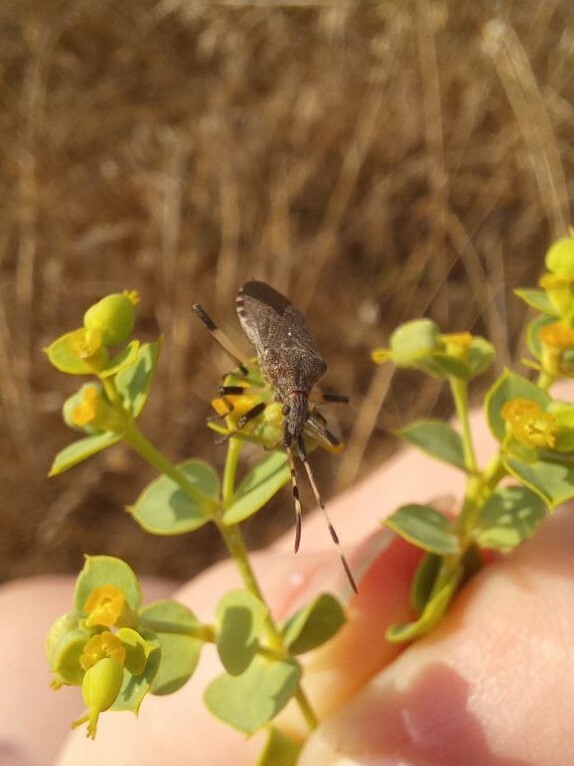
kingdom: Animalia
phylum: Arthropoda
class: Insecta
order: Hemiptera
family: Stenocephalidae
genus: Dicranocephalus
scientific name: Dicranocephalus albipes
